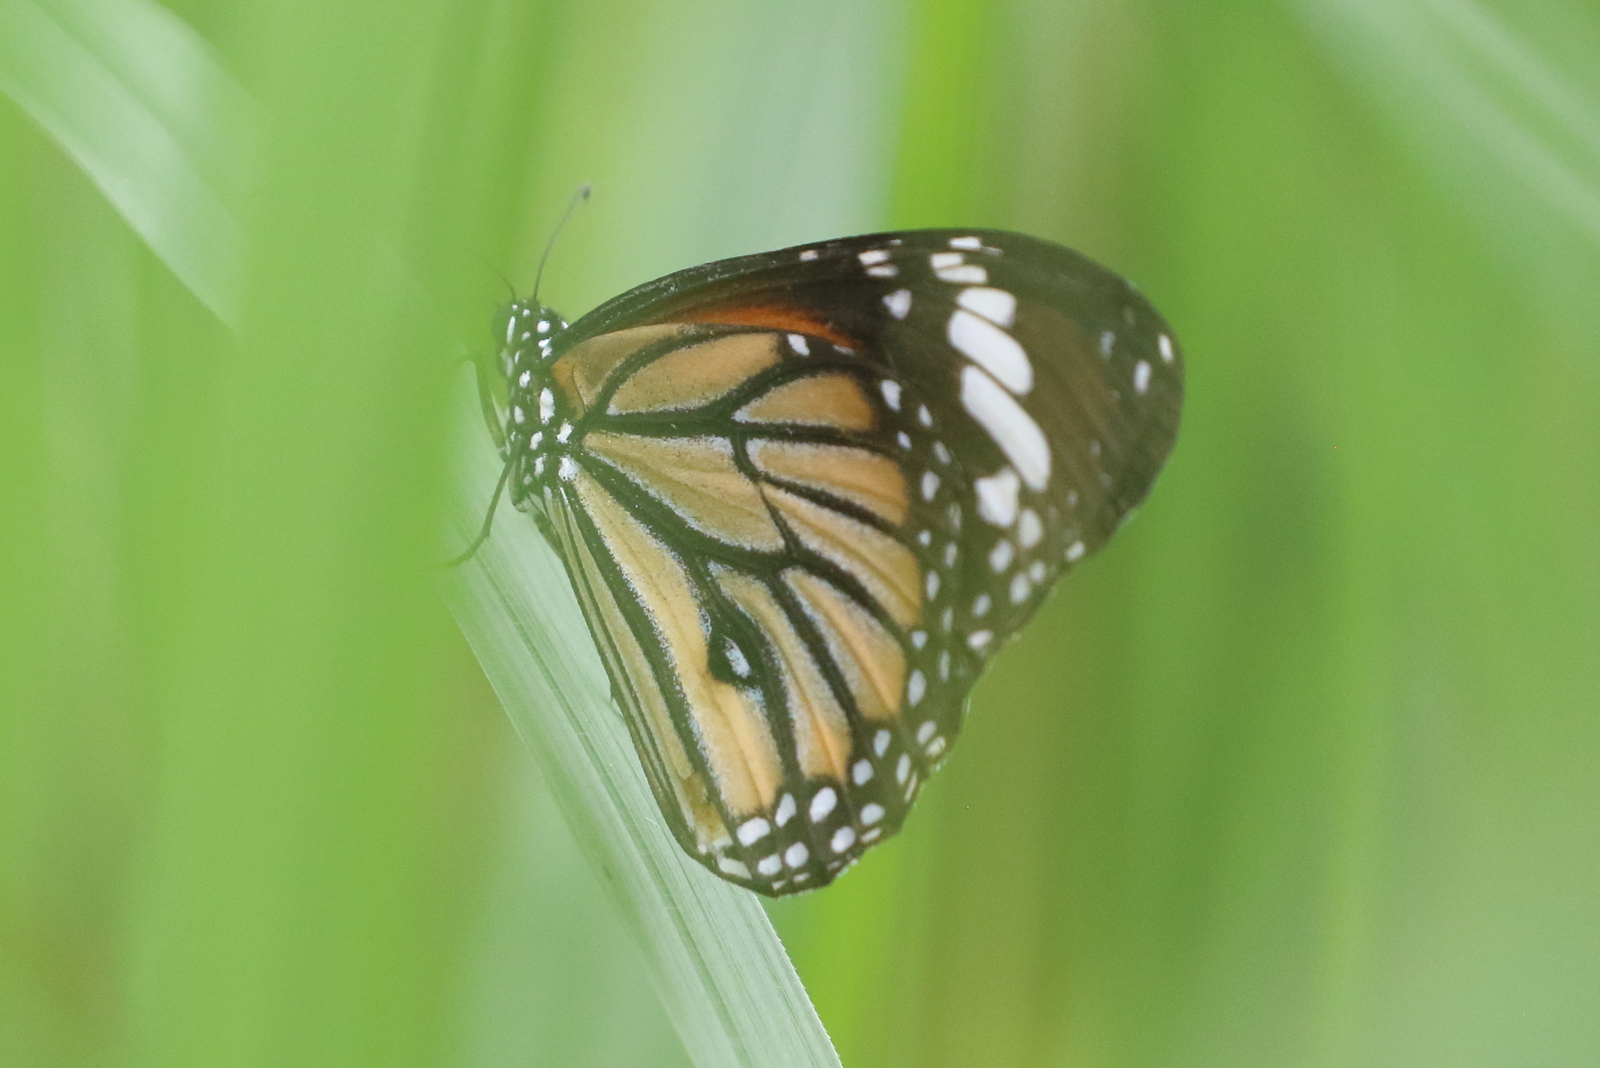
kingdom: Animalia
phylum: Arthropoda
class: Insecta
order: Lepidoptera
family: Nymphalidae
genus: Danaus
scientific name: Danaus genutia
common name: Common tiger butterfly
